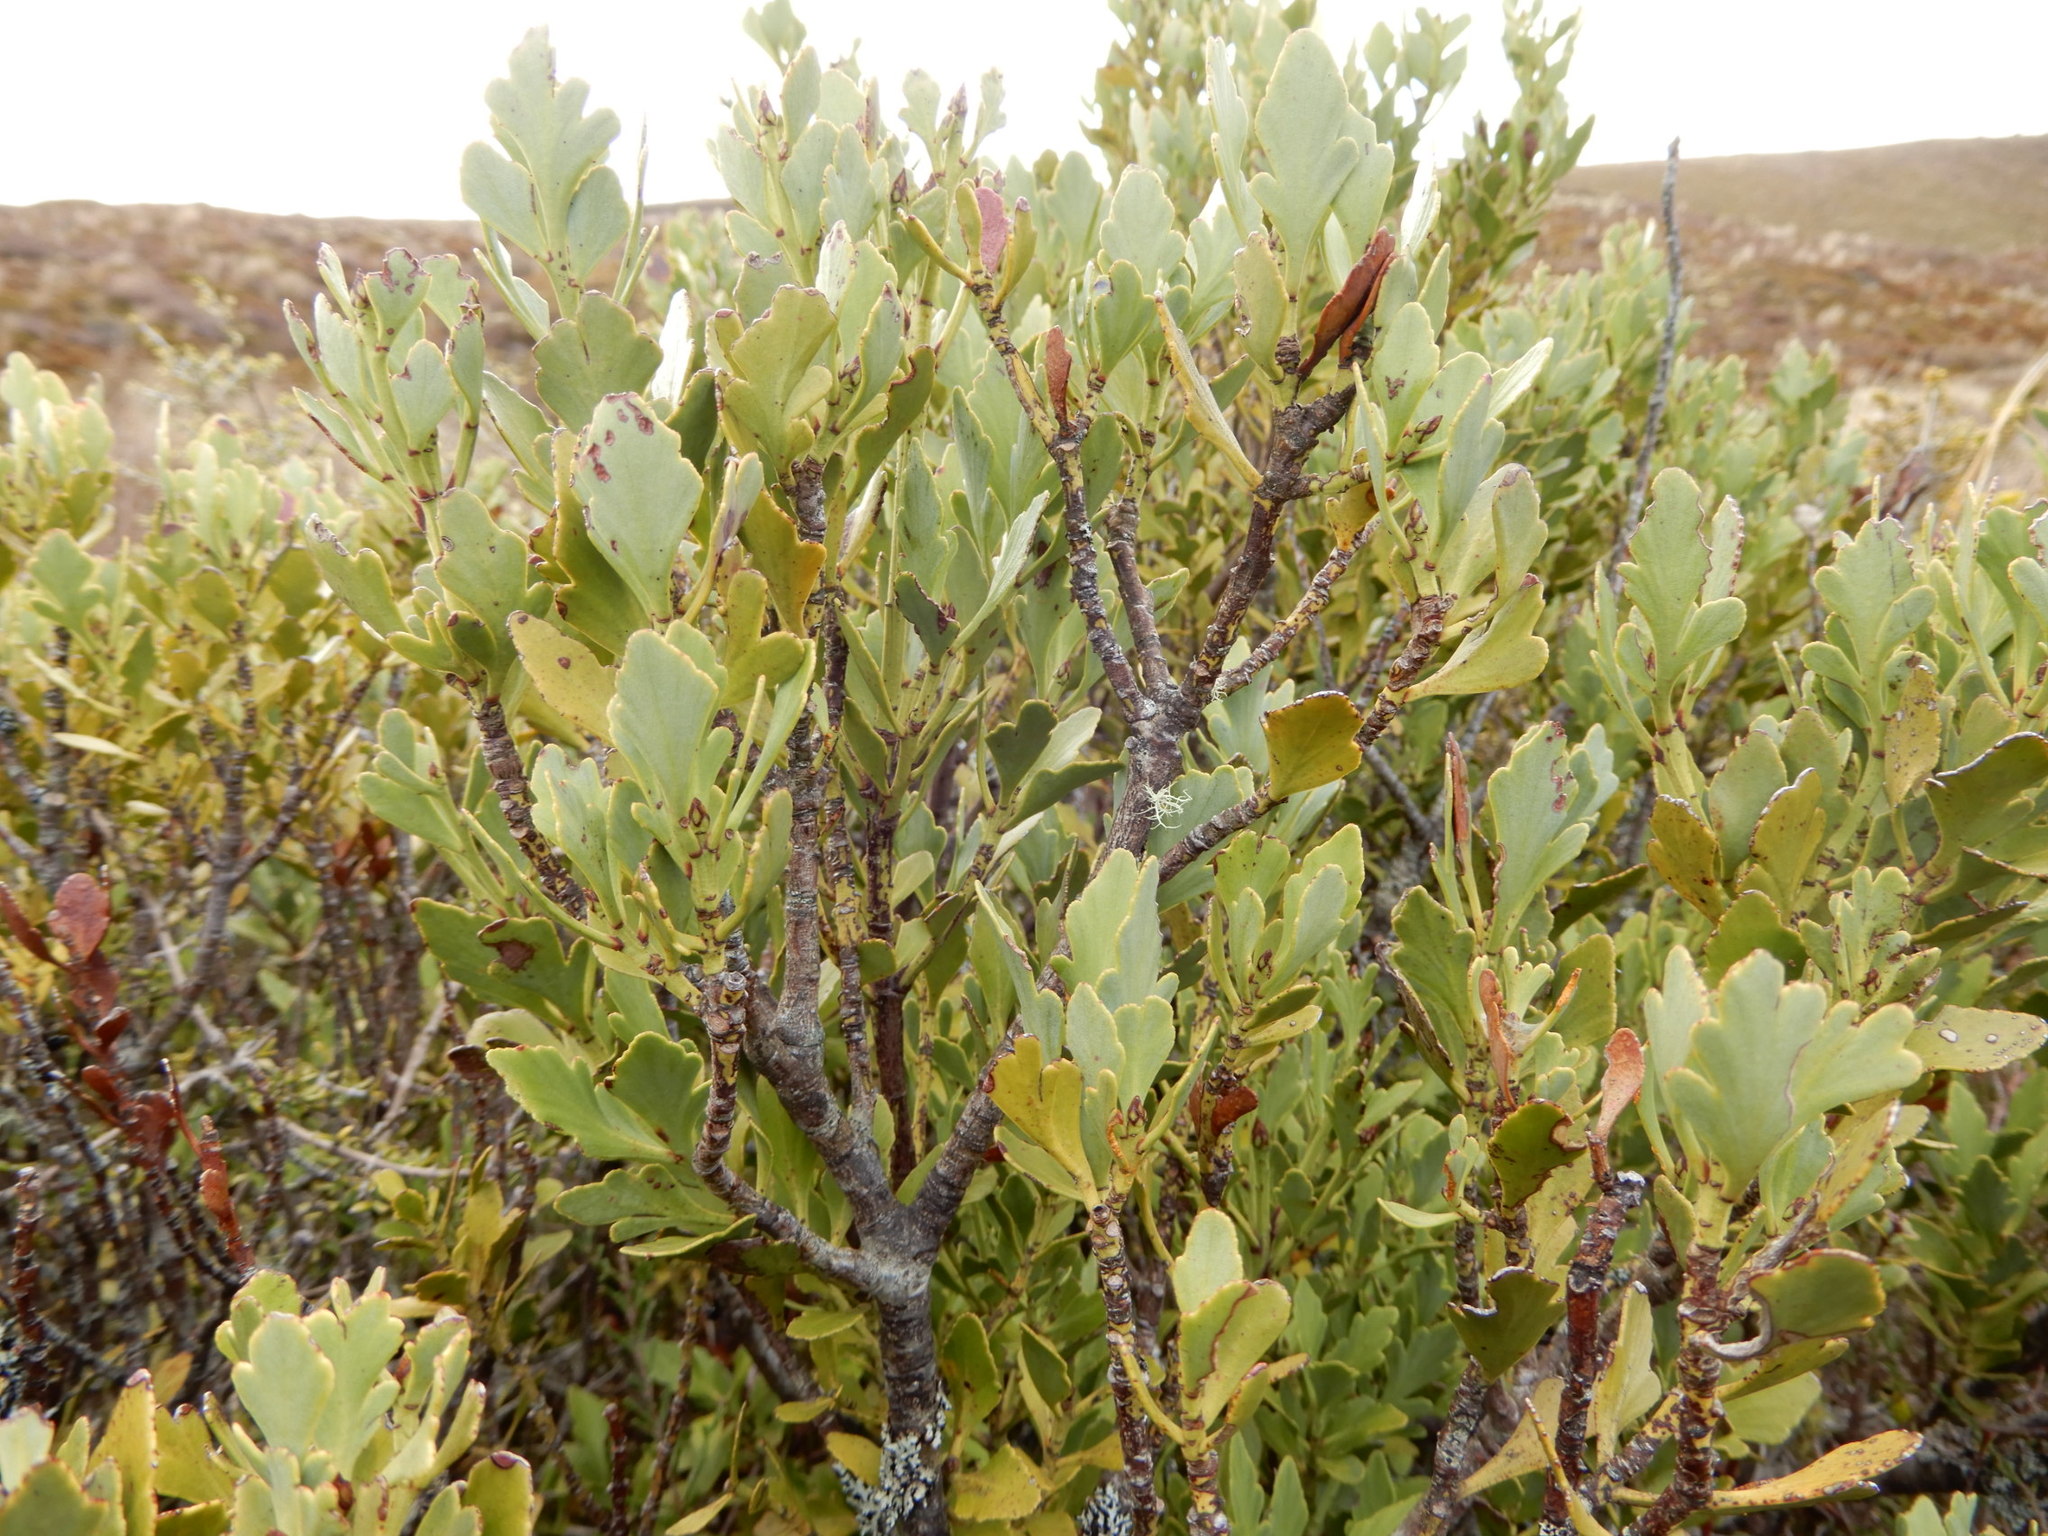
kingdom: Plantae
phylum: Tracheophyta
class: Pinopsida
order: Pinales
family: Phyllocladaceae
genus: Phyllocladus
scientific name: Phyllocladus trichomanoides
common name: Celery pine
